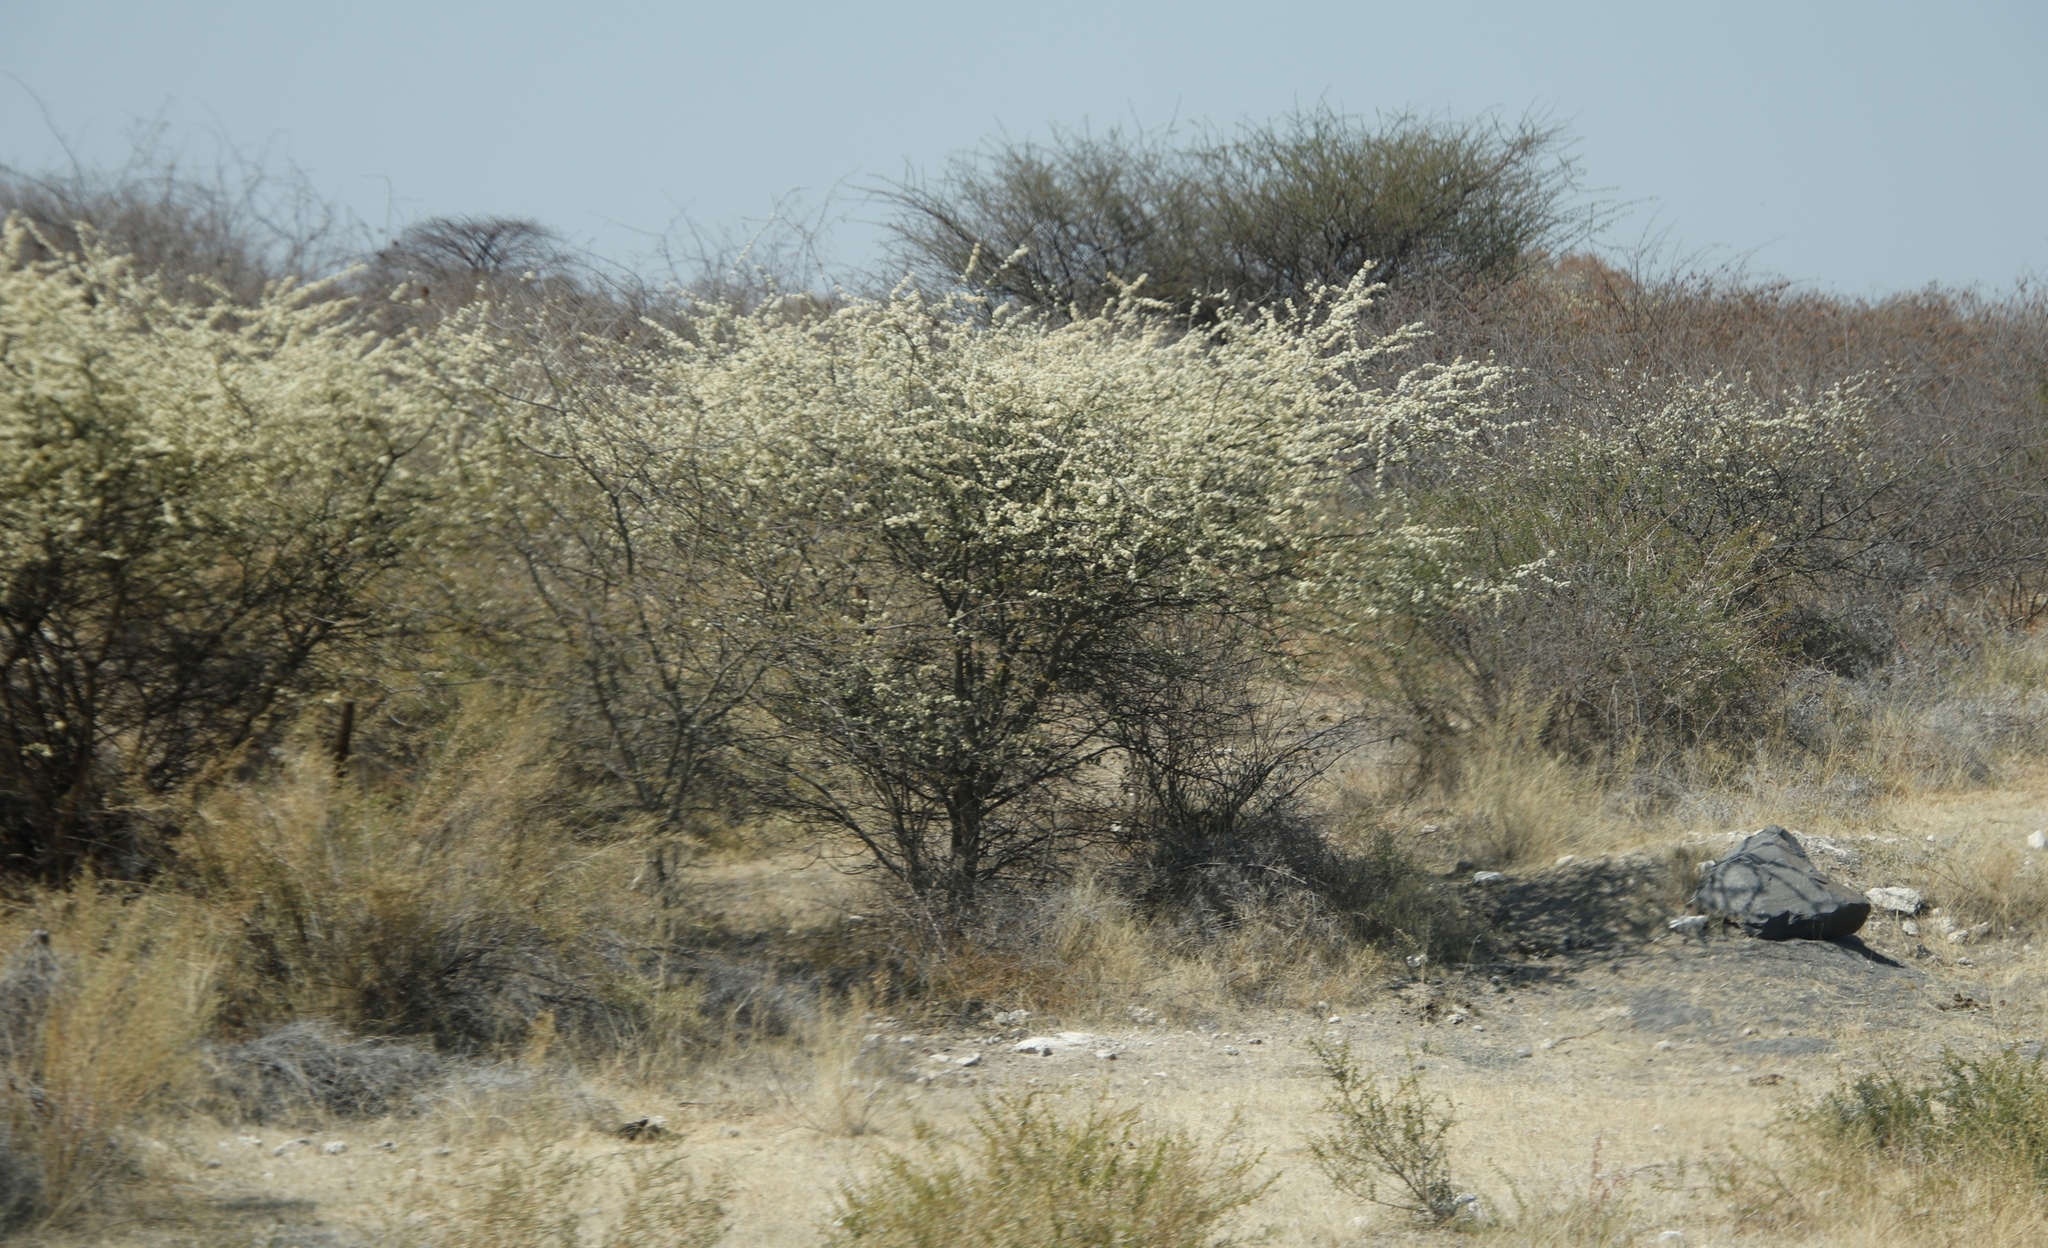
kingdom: Plantae
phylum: Tracheophyta
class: Magnoliopsida
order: Fabales
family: Fabaceae
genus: Senegalia
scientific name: Senegalia mellifera
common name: Hookthorn
